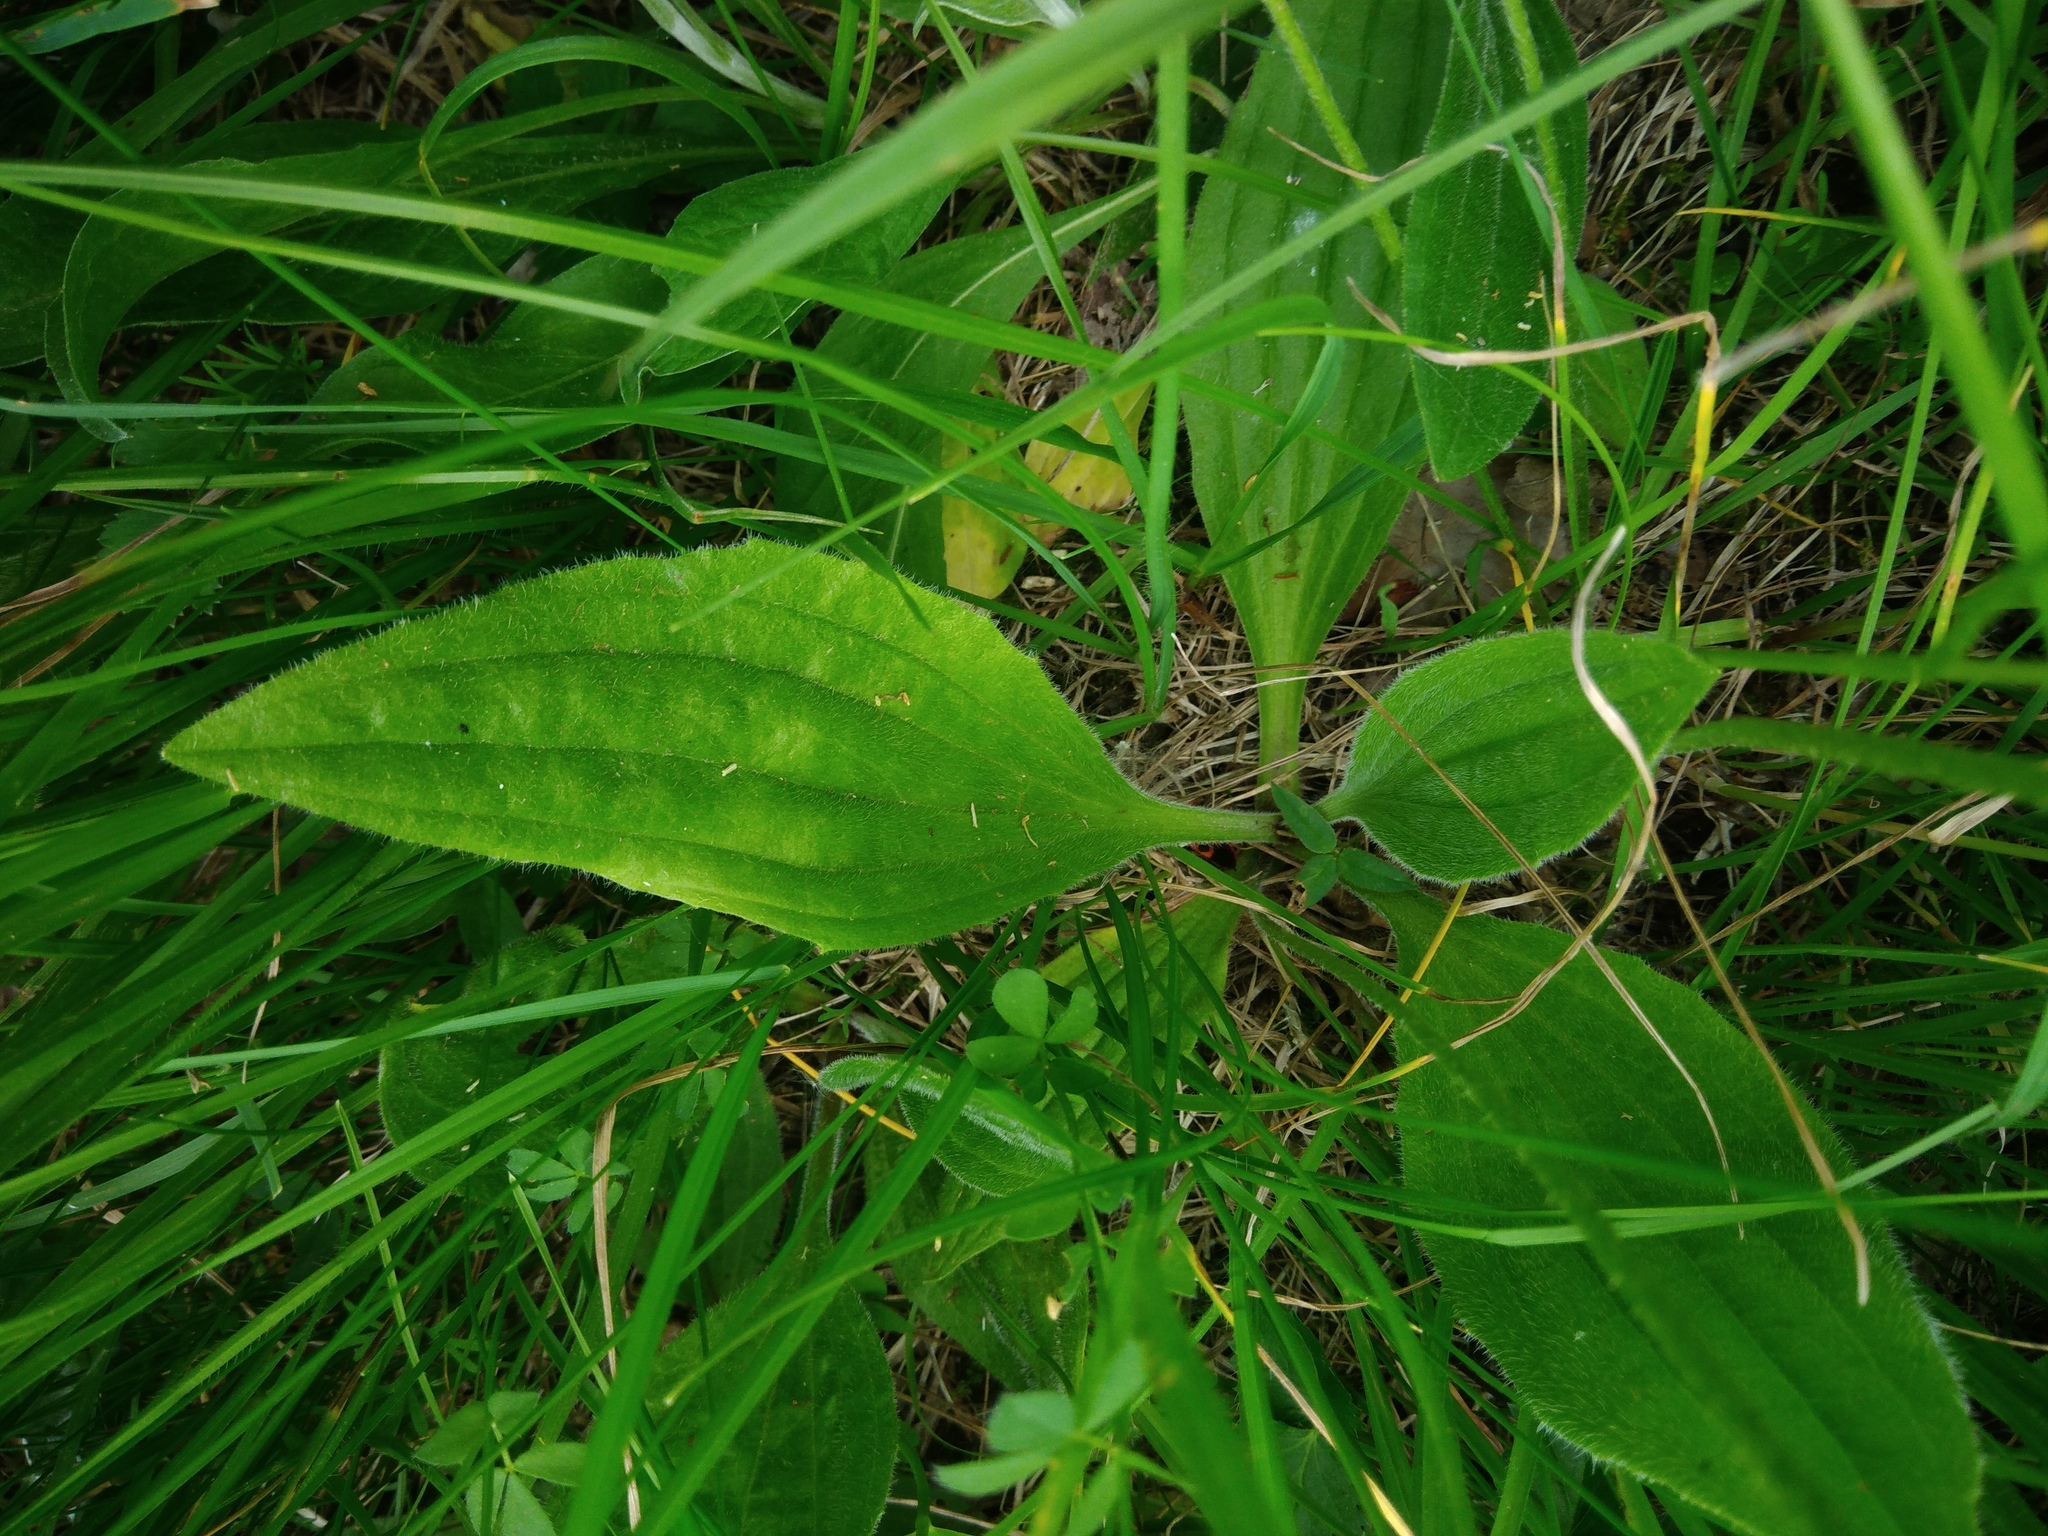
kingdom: Plantae
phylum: Tracheophyta
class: Magnoliopsida
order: Lamiales
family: Plantaginaceae
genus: Plantago
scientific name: Plantago media
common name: Hoary plantain
